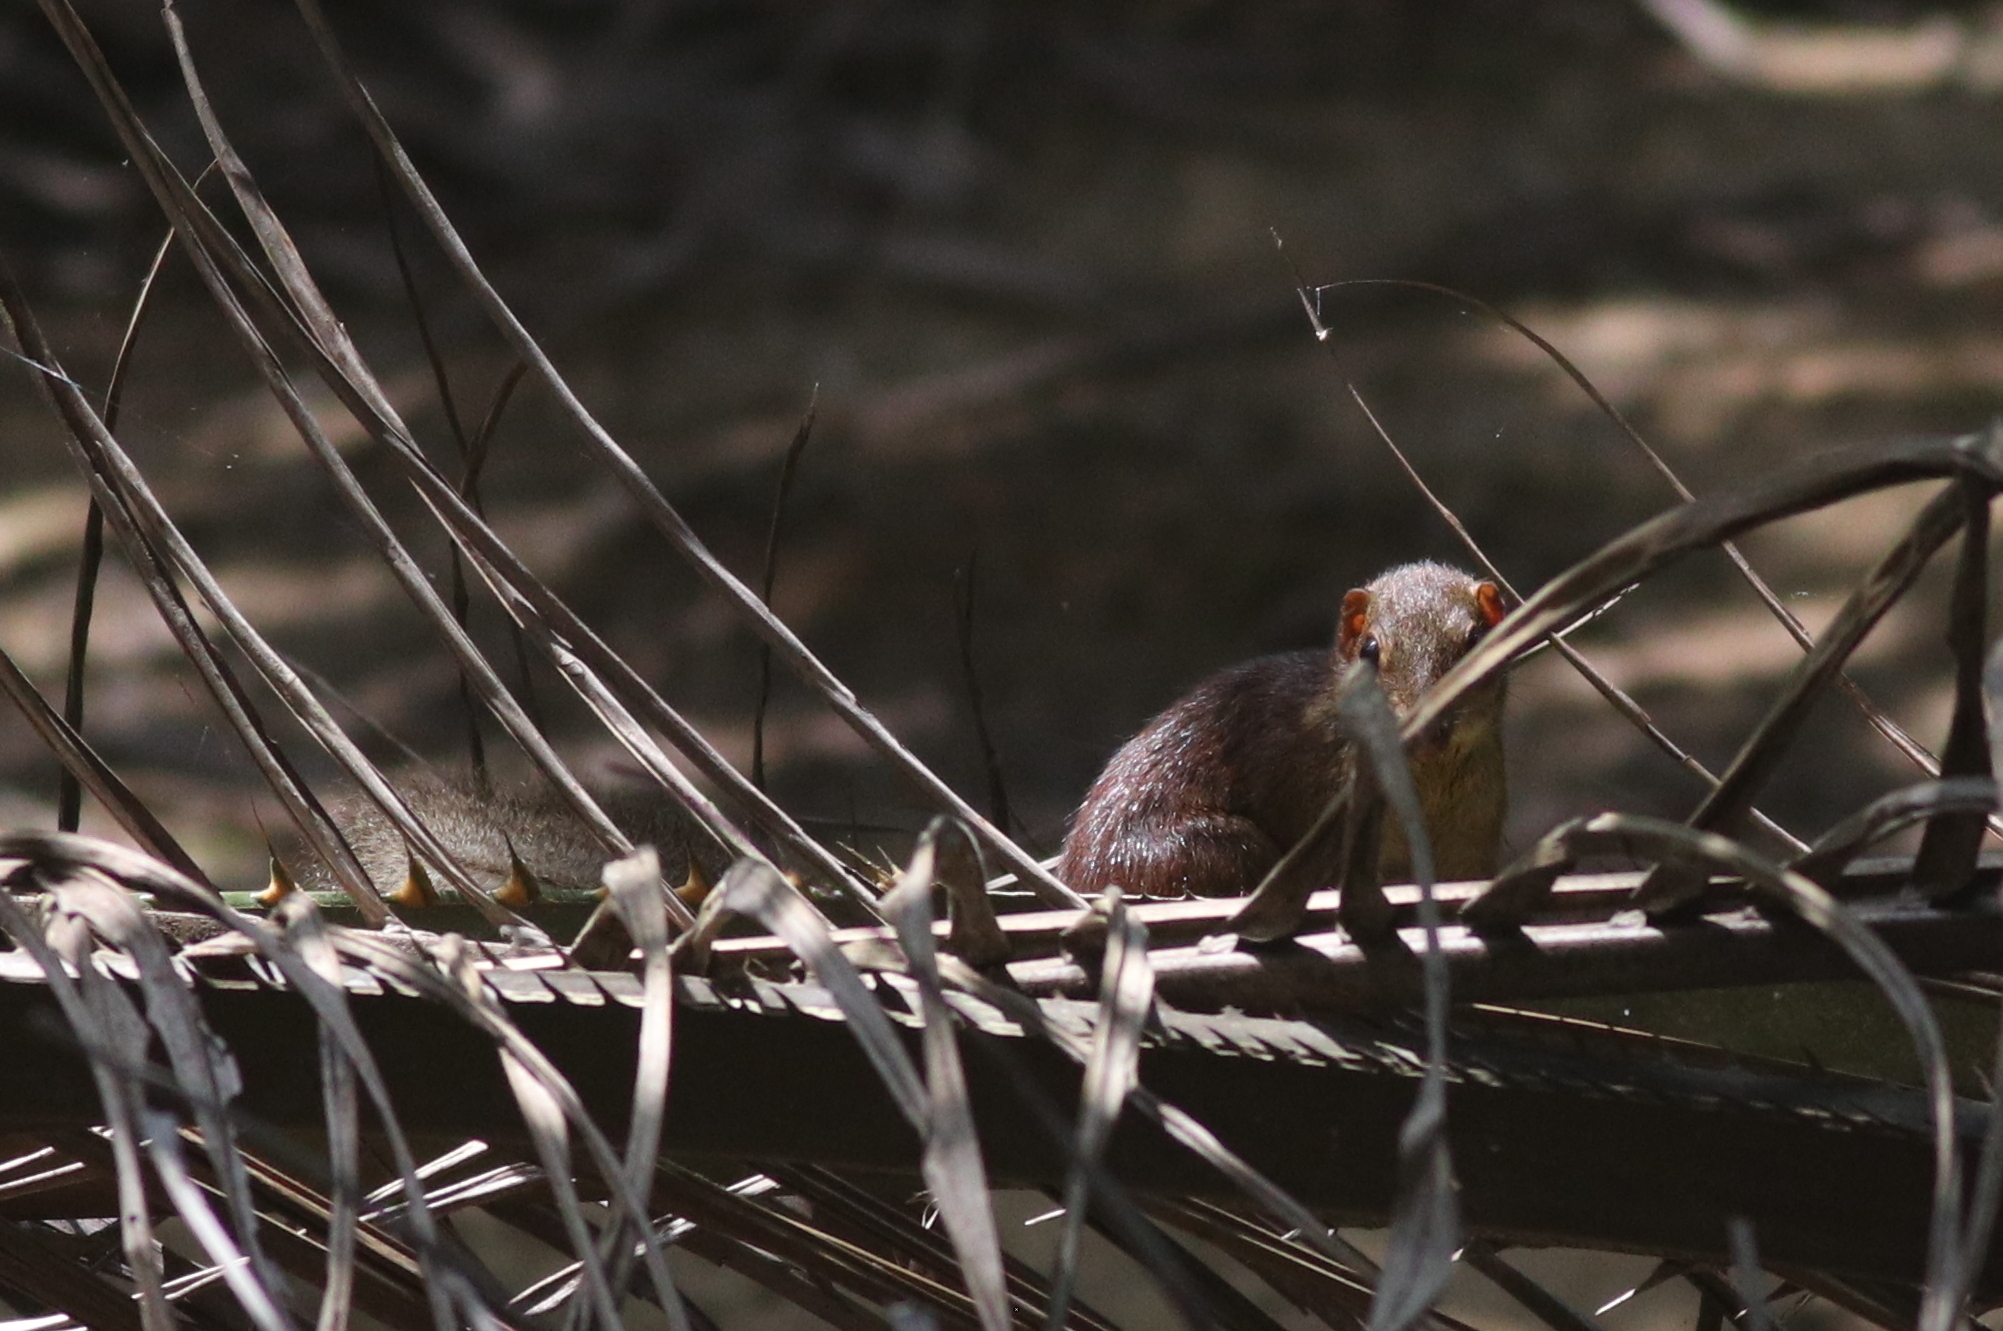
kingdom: Animalia
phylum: Chordata
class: Mammalia
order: Scandentia
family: Tupaiidae
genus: Tupaia
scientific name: Tupaia glis
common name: Common treeshrew
